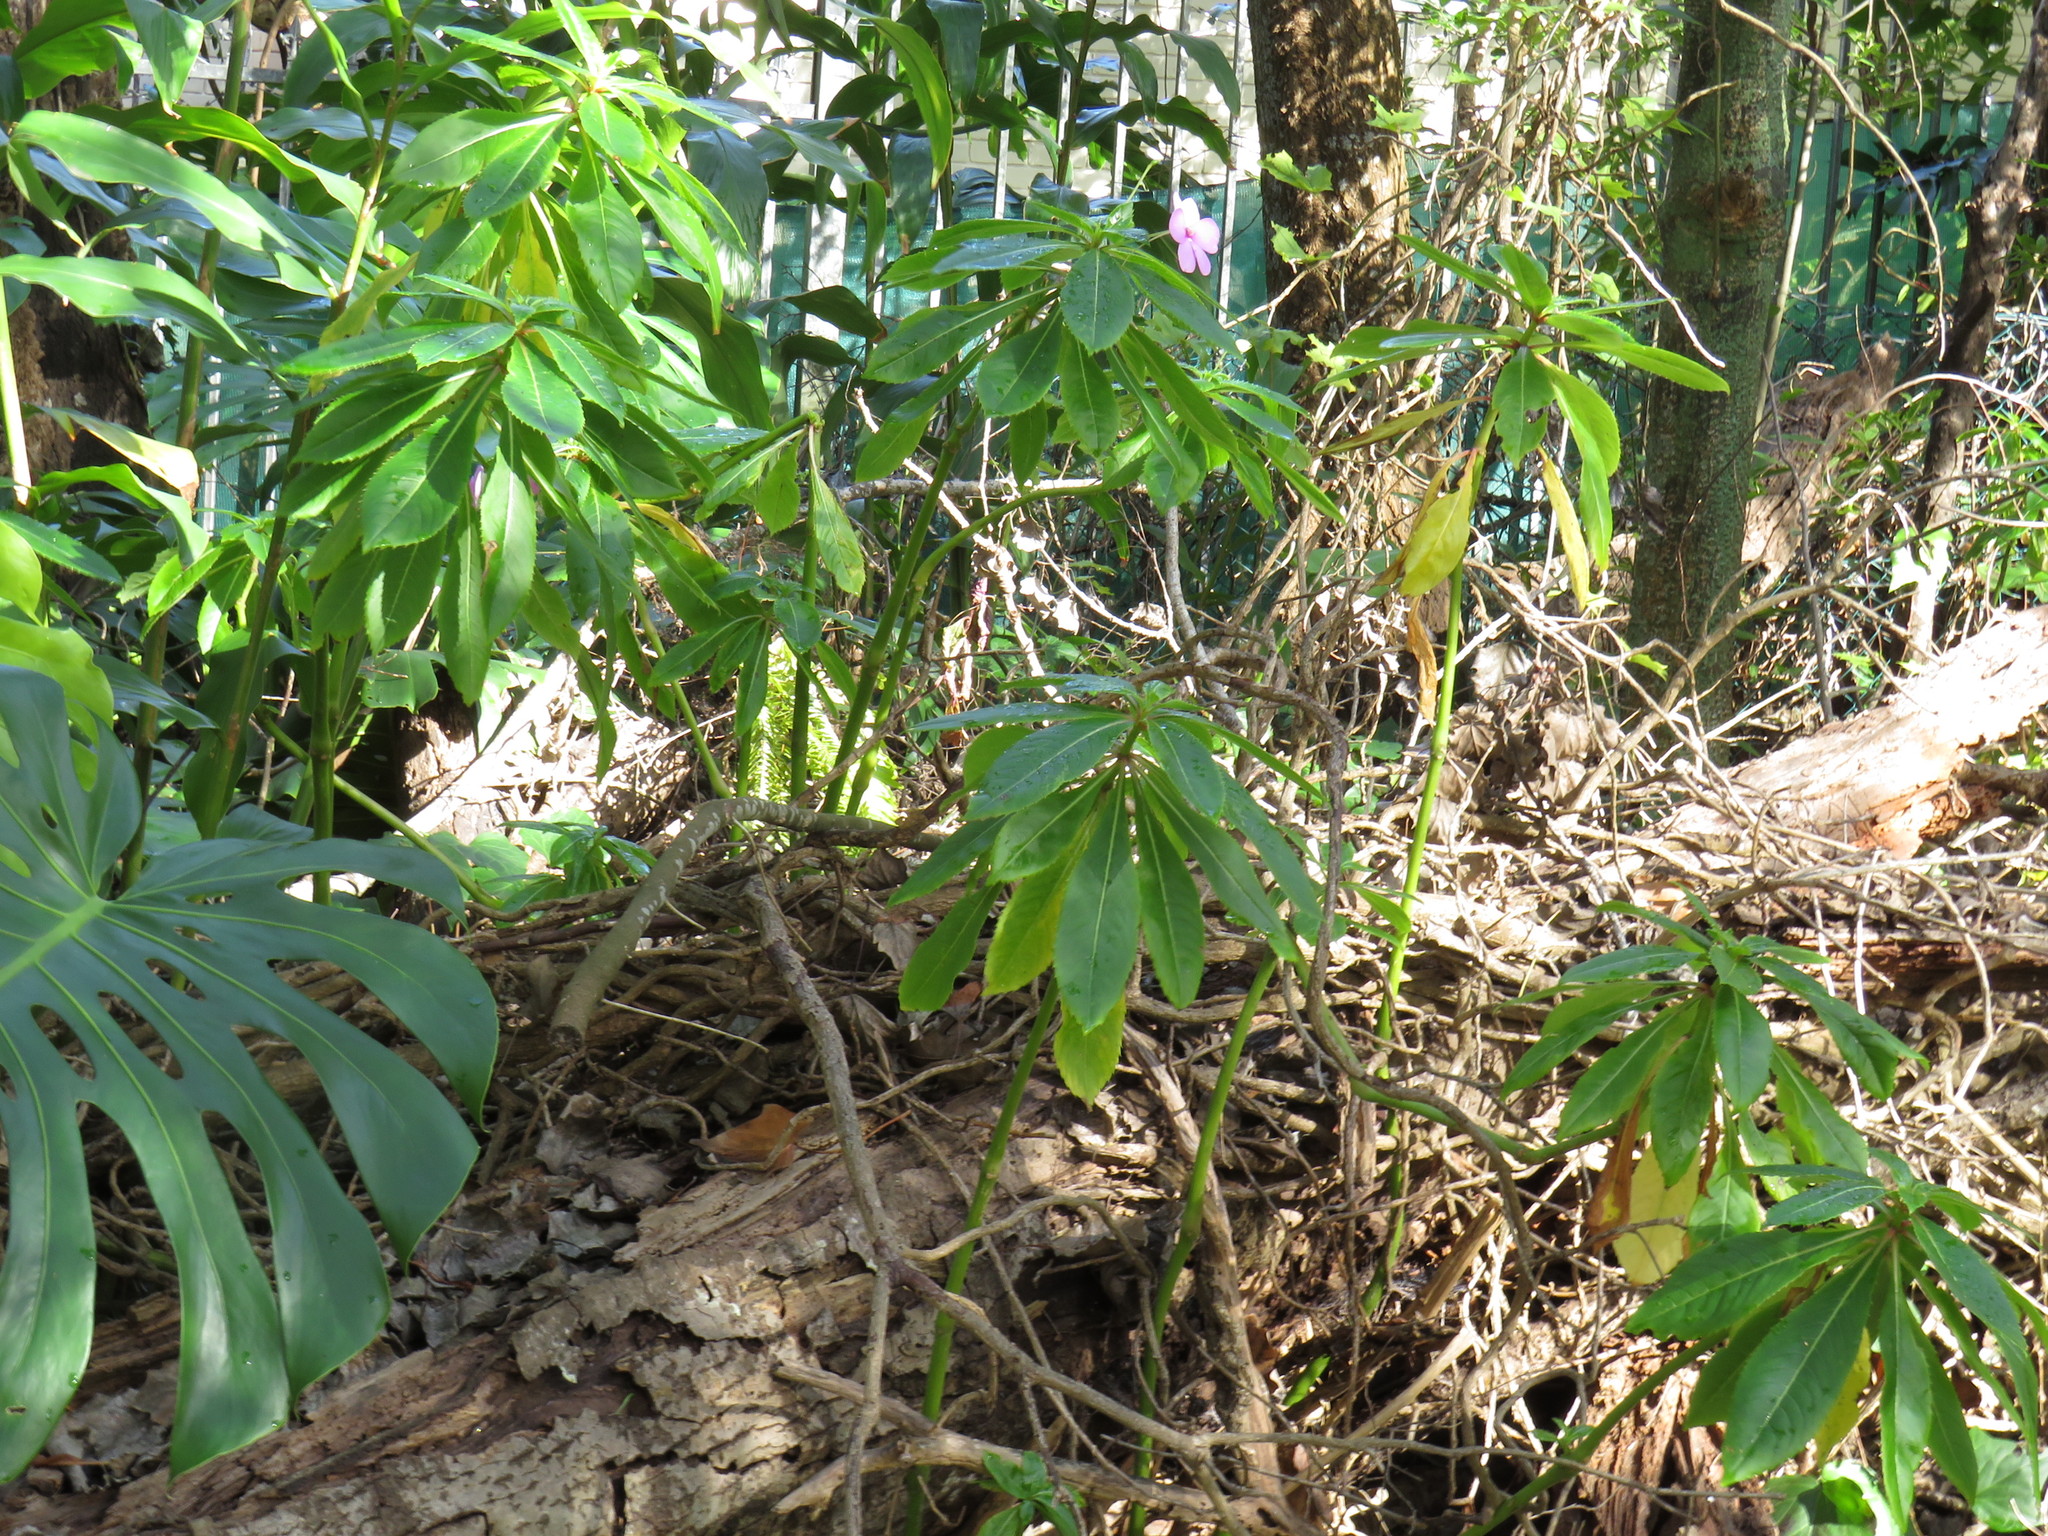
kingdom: Plantae
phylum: Tracheophyta
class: Magnoliopsida
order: Ericales
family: Balsaminaceae
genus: Impatiens
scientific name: Impatiens sodenii
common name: Oliver's touch-me-not
